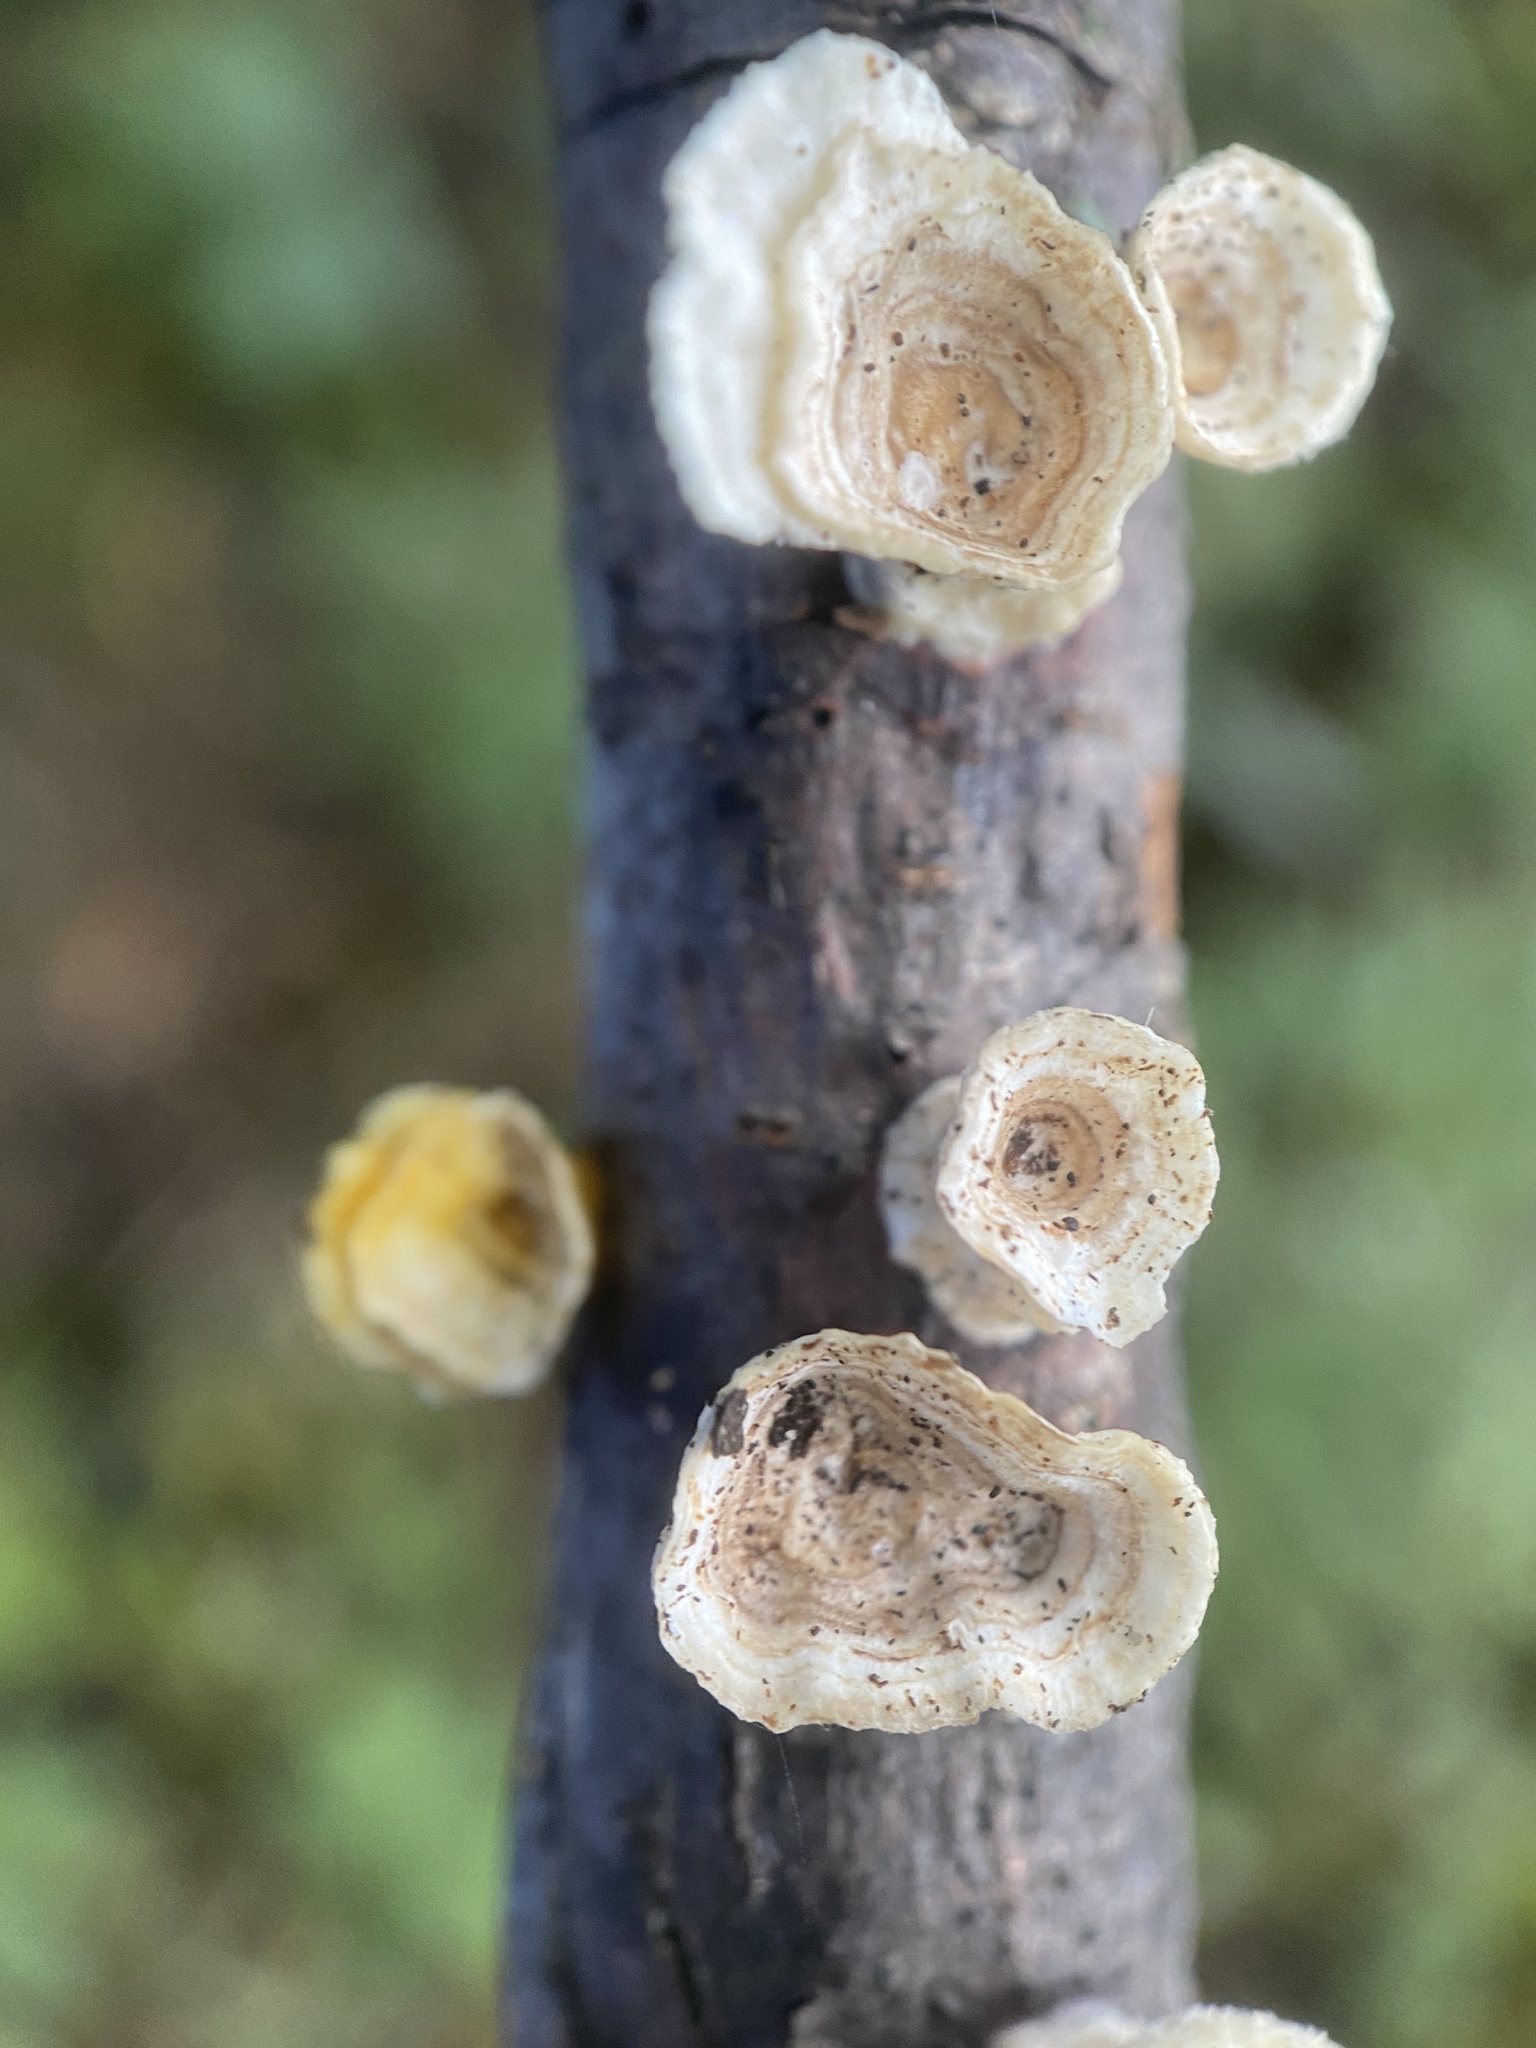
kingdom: Fungi
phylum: Basidiomycota
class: Agaricomycetes
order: Polyporales
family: Polyporaceae
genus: Poronidulus
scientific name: Poronidulus conchifer
